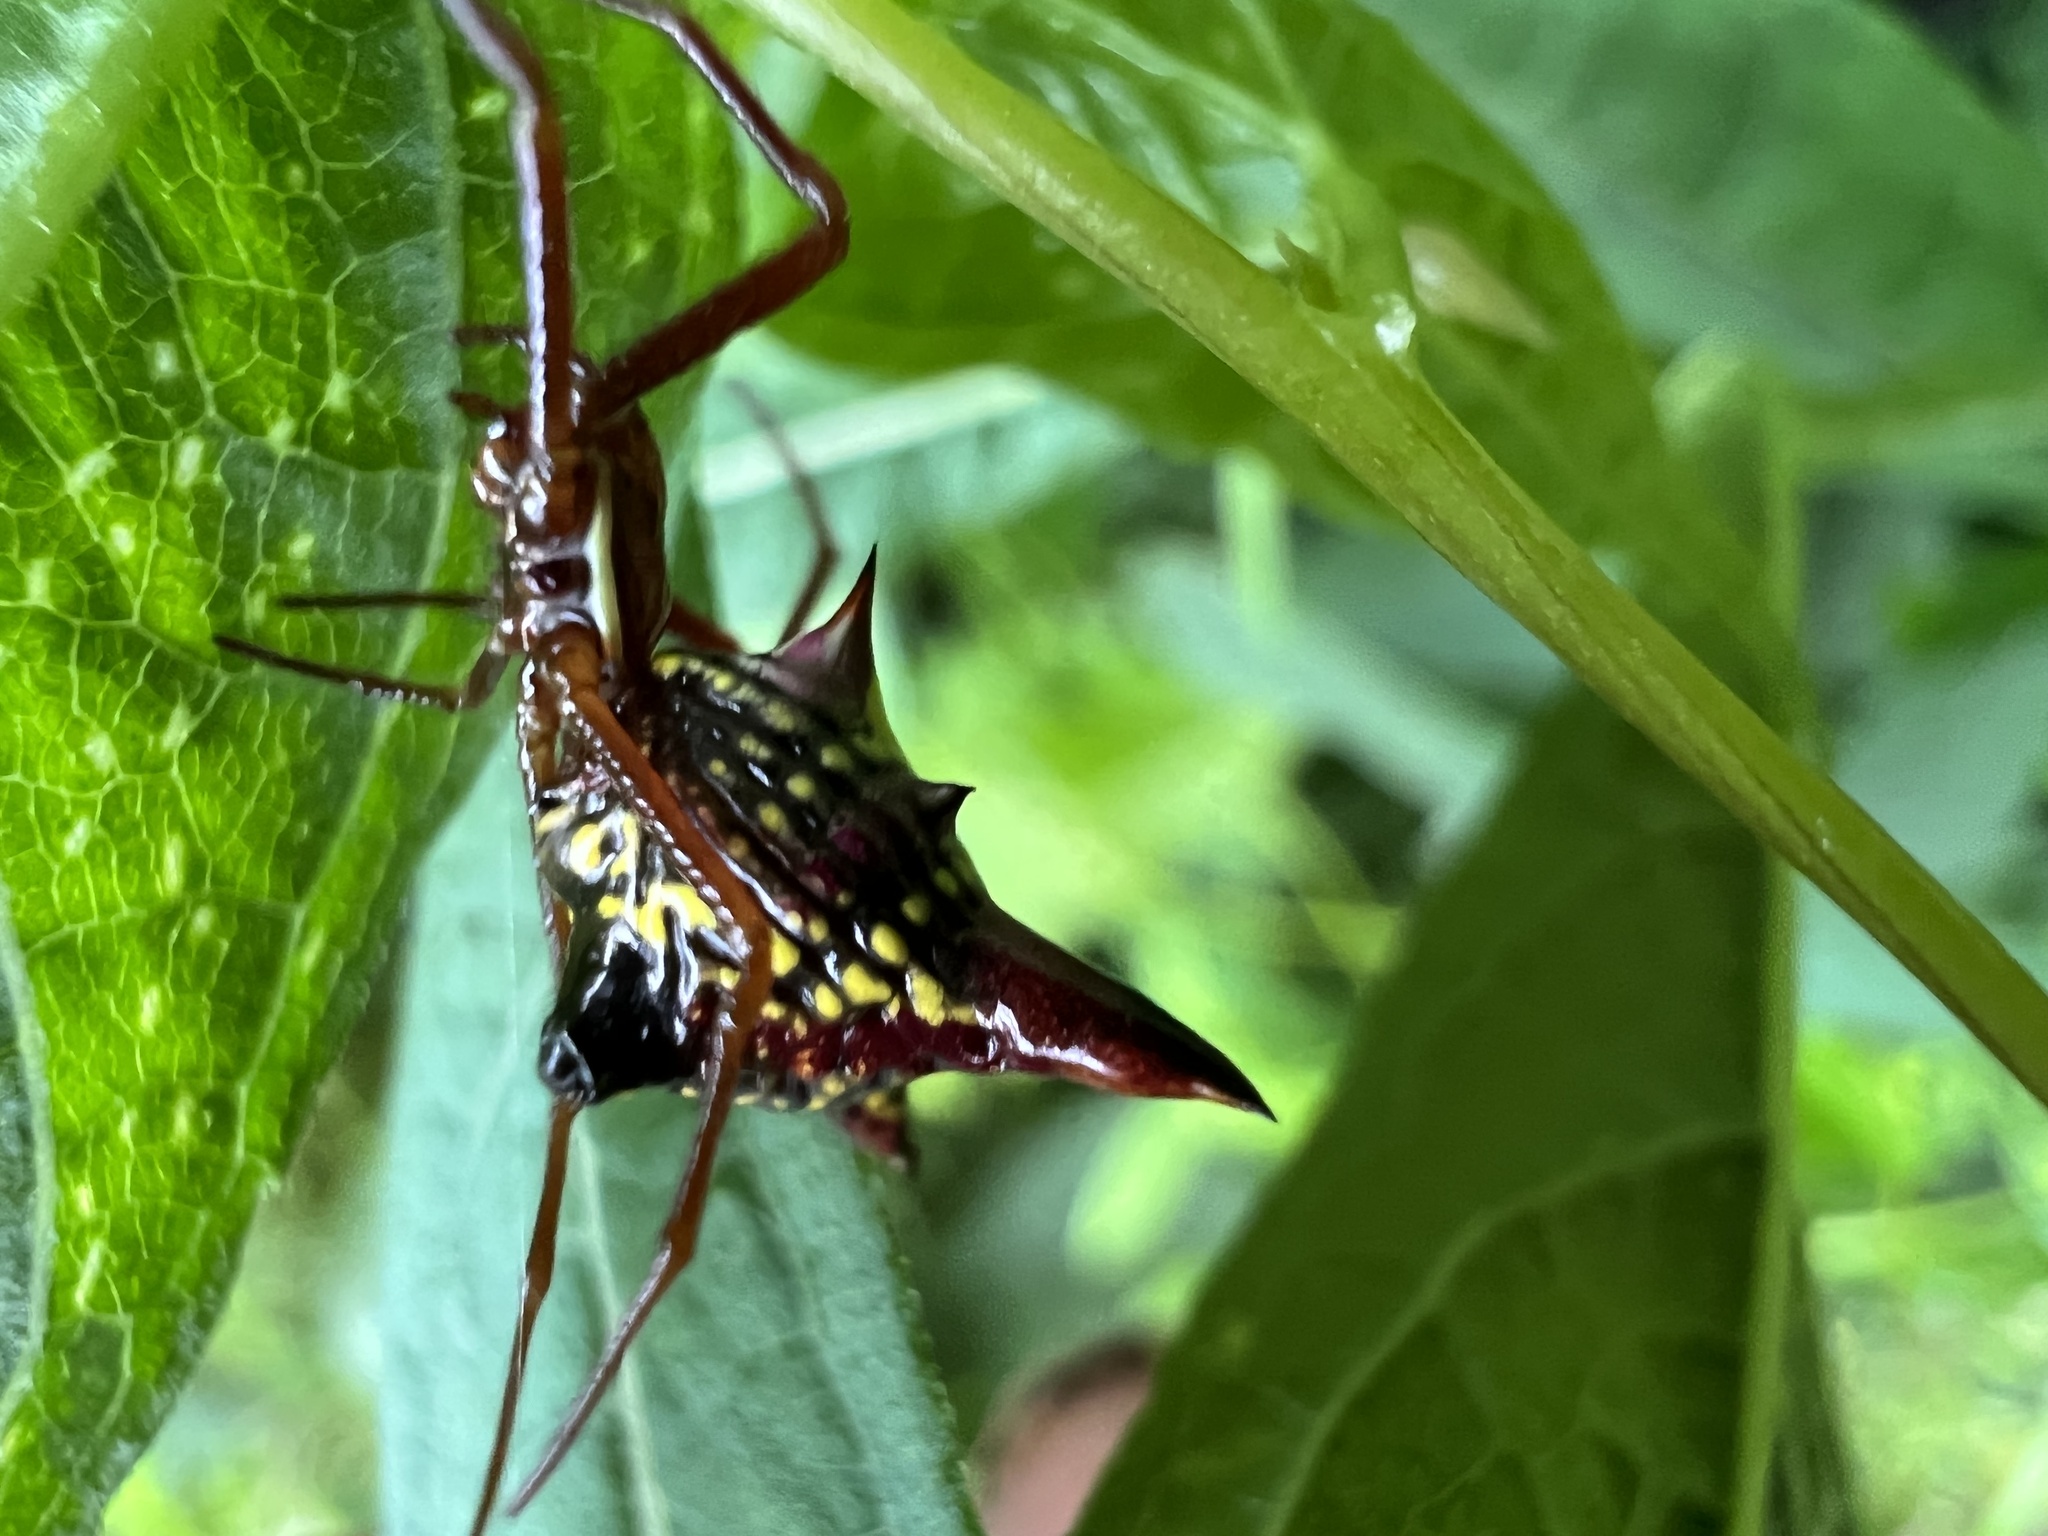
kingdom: Animalia
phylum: Arthropoda
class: Arachnida
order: Araneae
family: Araneidae
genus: Micrathena
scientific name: Micrathena sagittata
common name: Orb weavers
